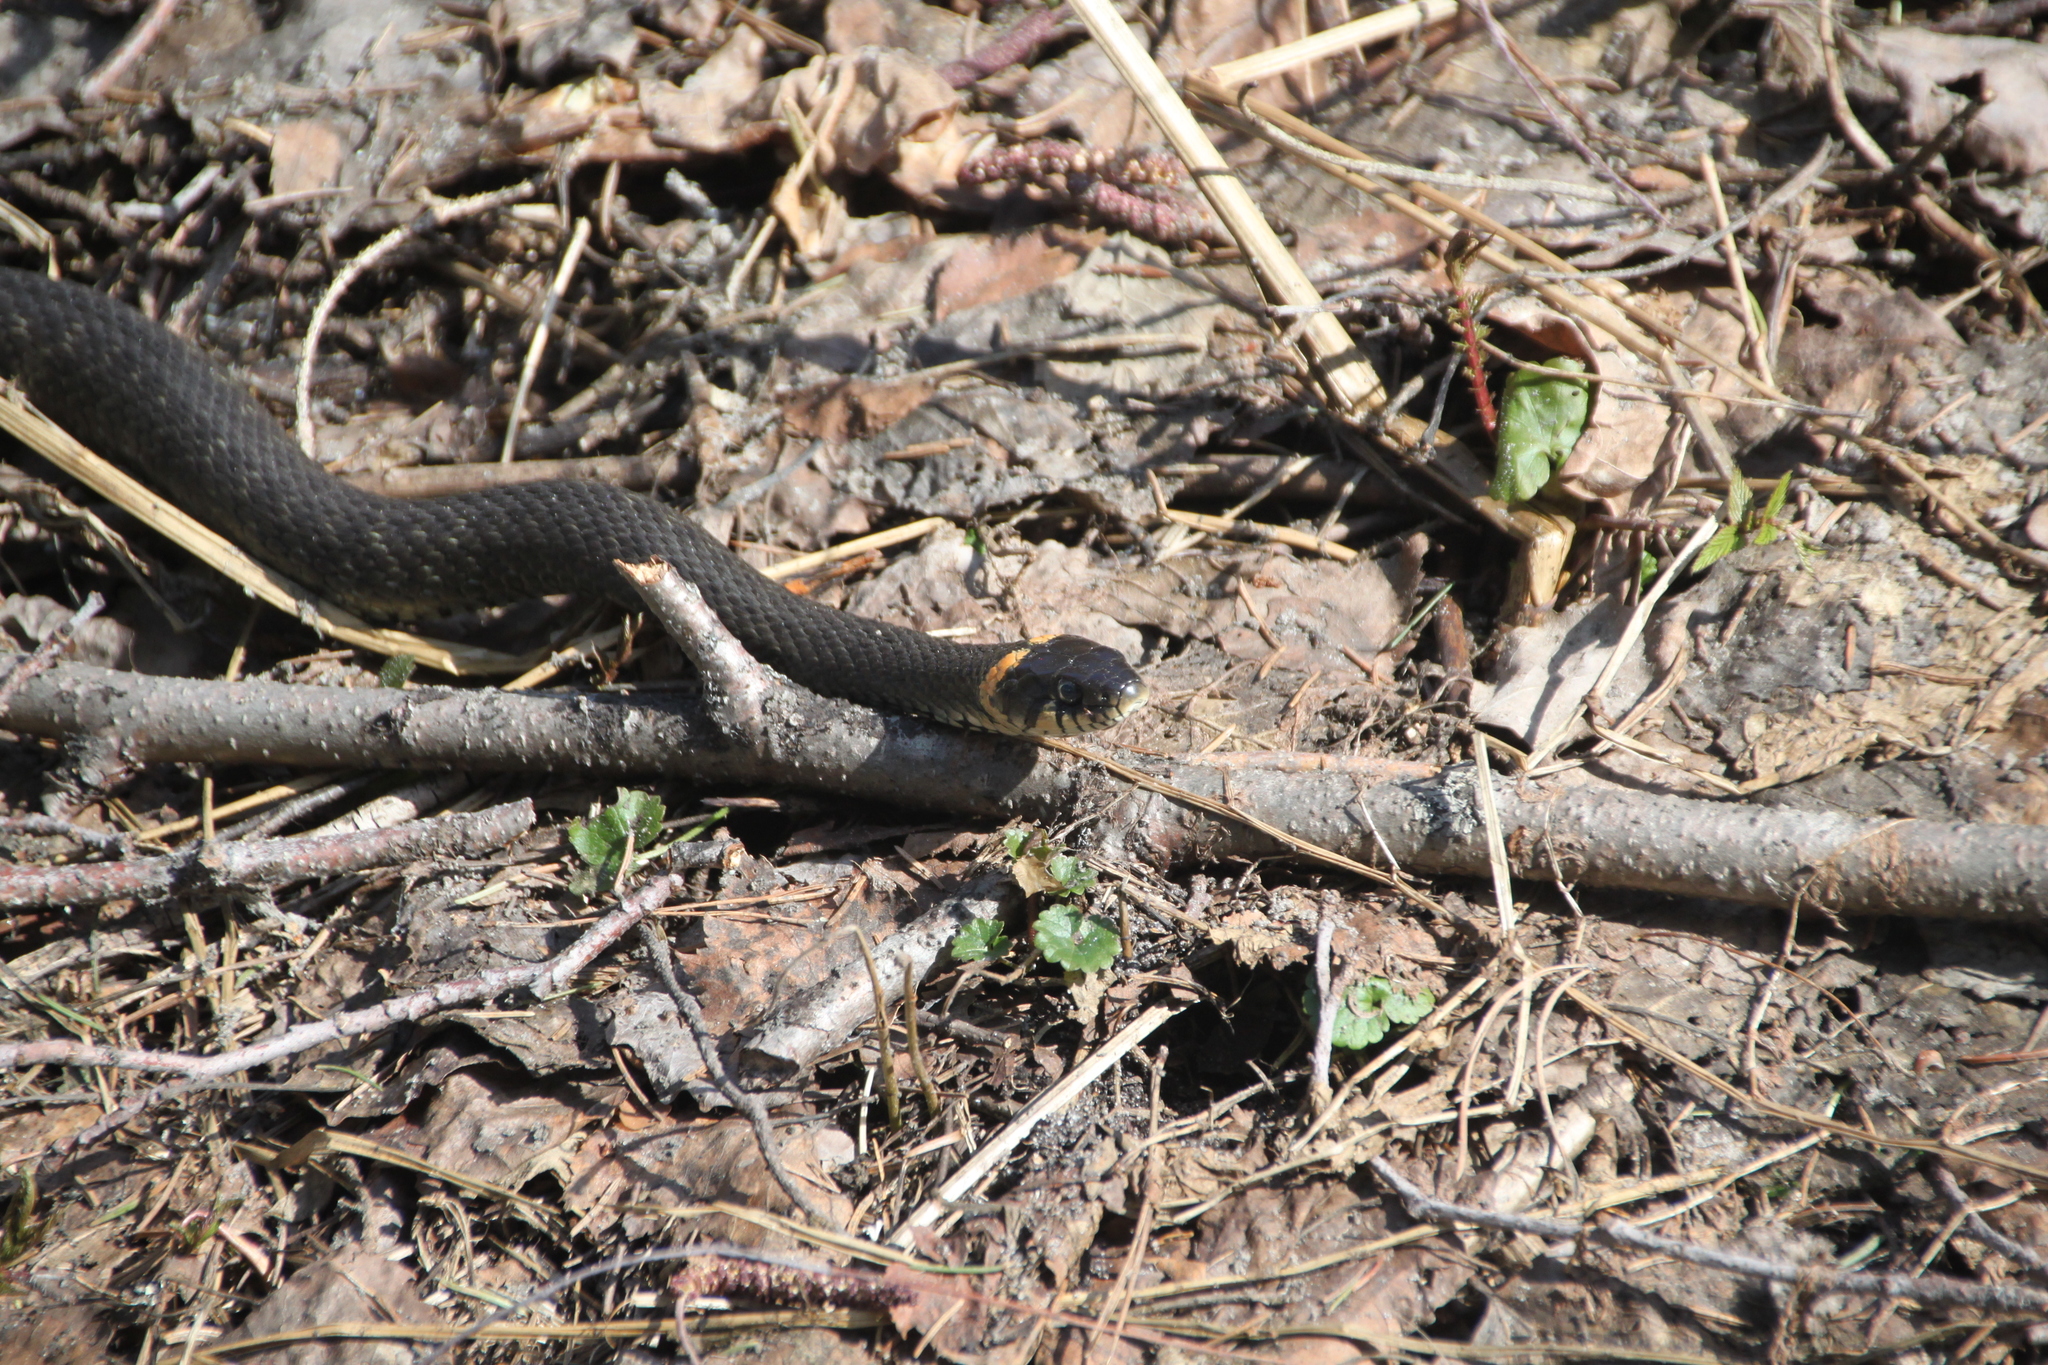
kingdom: Animalia
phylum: Chordata
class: Squamata
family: Colubridae
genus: Natrix
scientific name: Natrix natrix
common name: Grass snake
